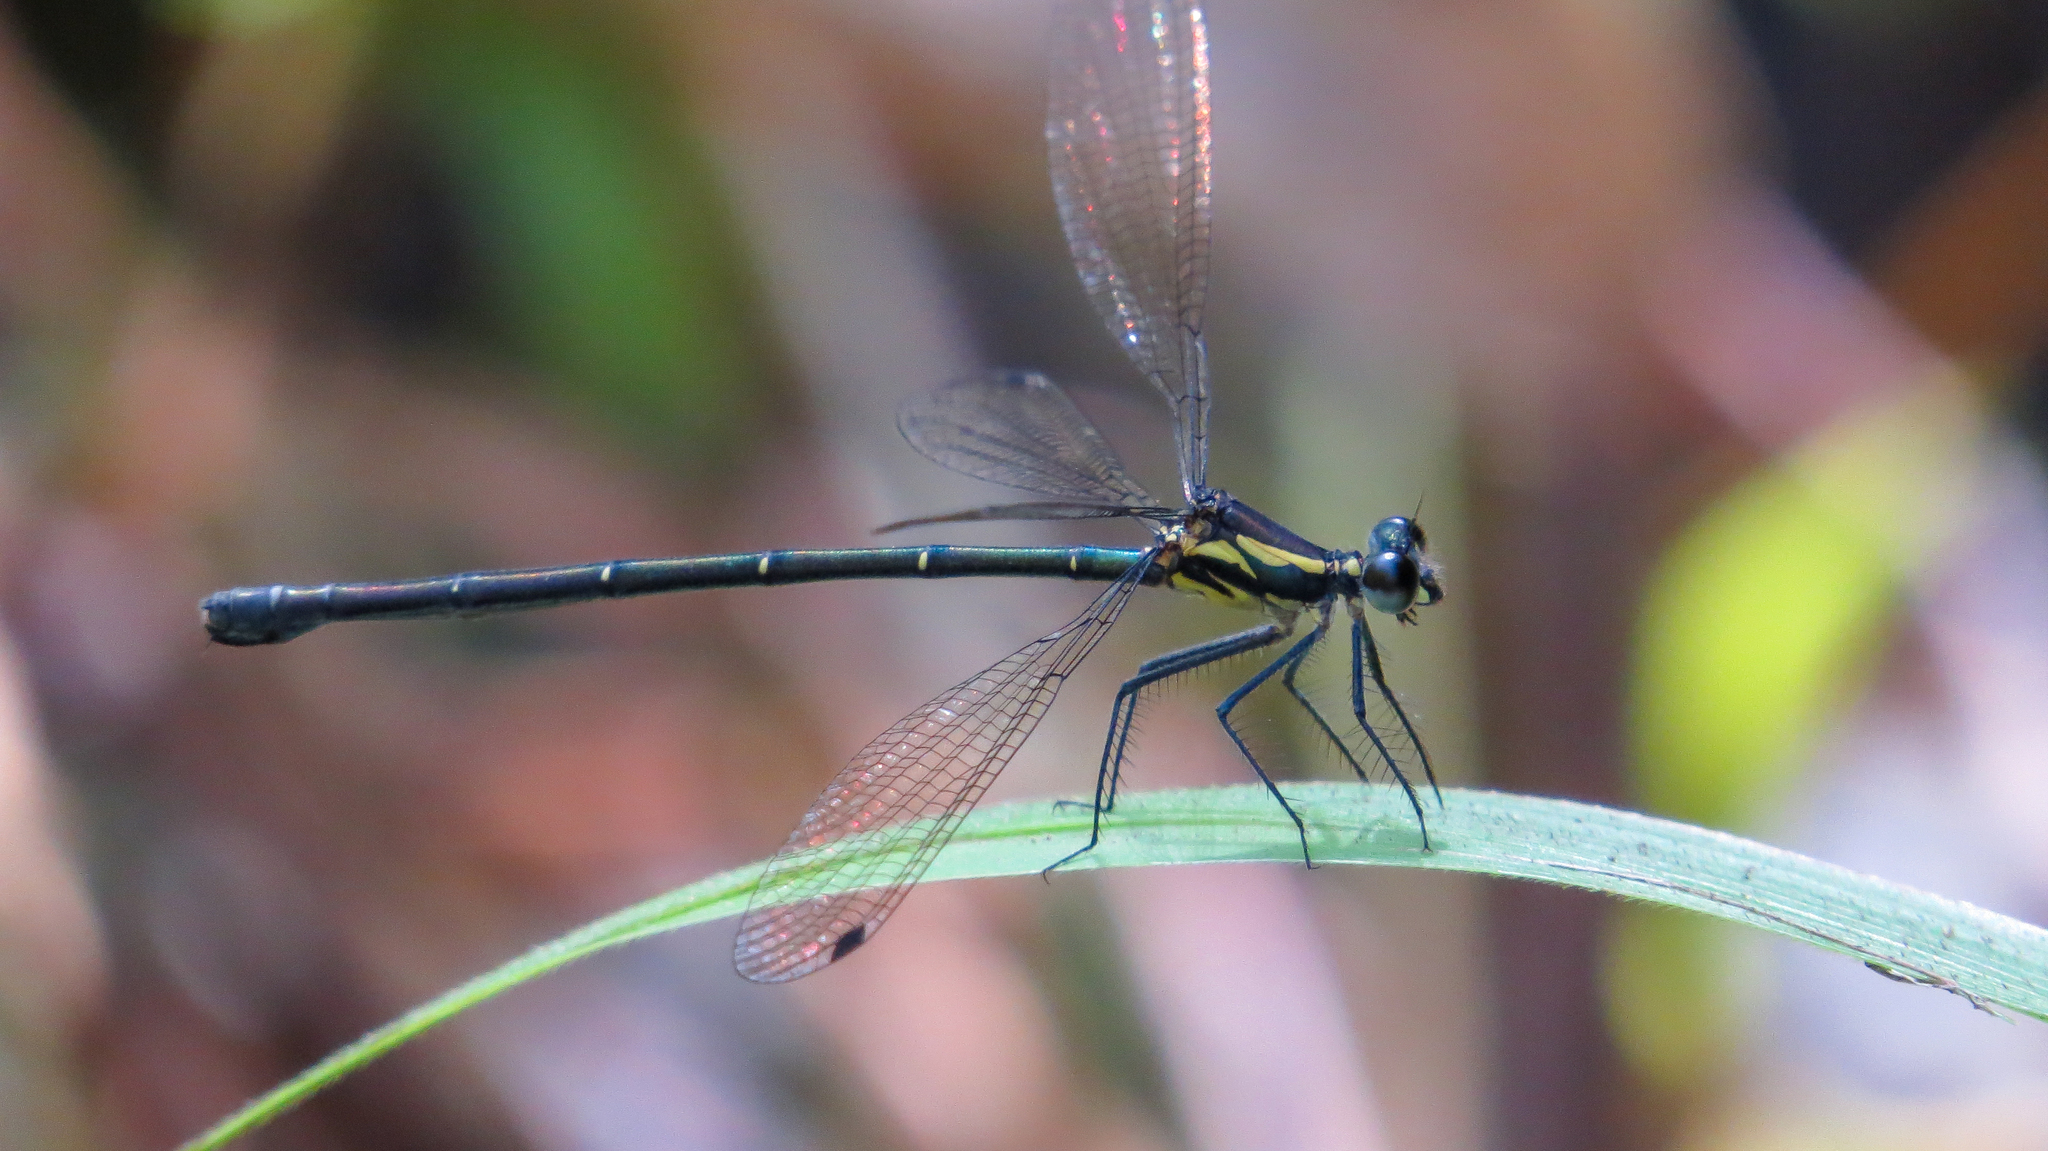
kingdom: Animalia
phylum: Arthropoda
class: Insecta
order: Odonata
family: Argiolestidae
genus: Austroargiolestes
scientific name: Austroargiolestes icteromelas
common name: Common flatwing
